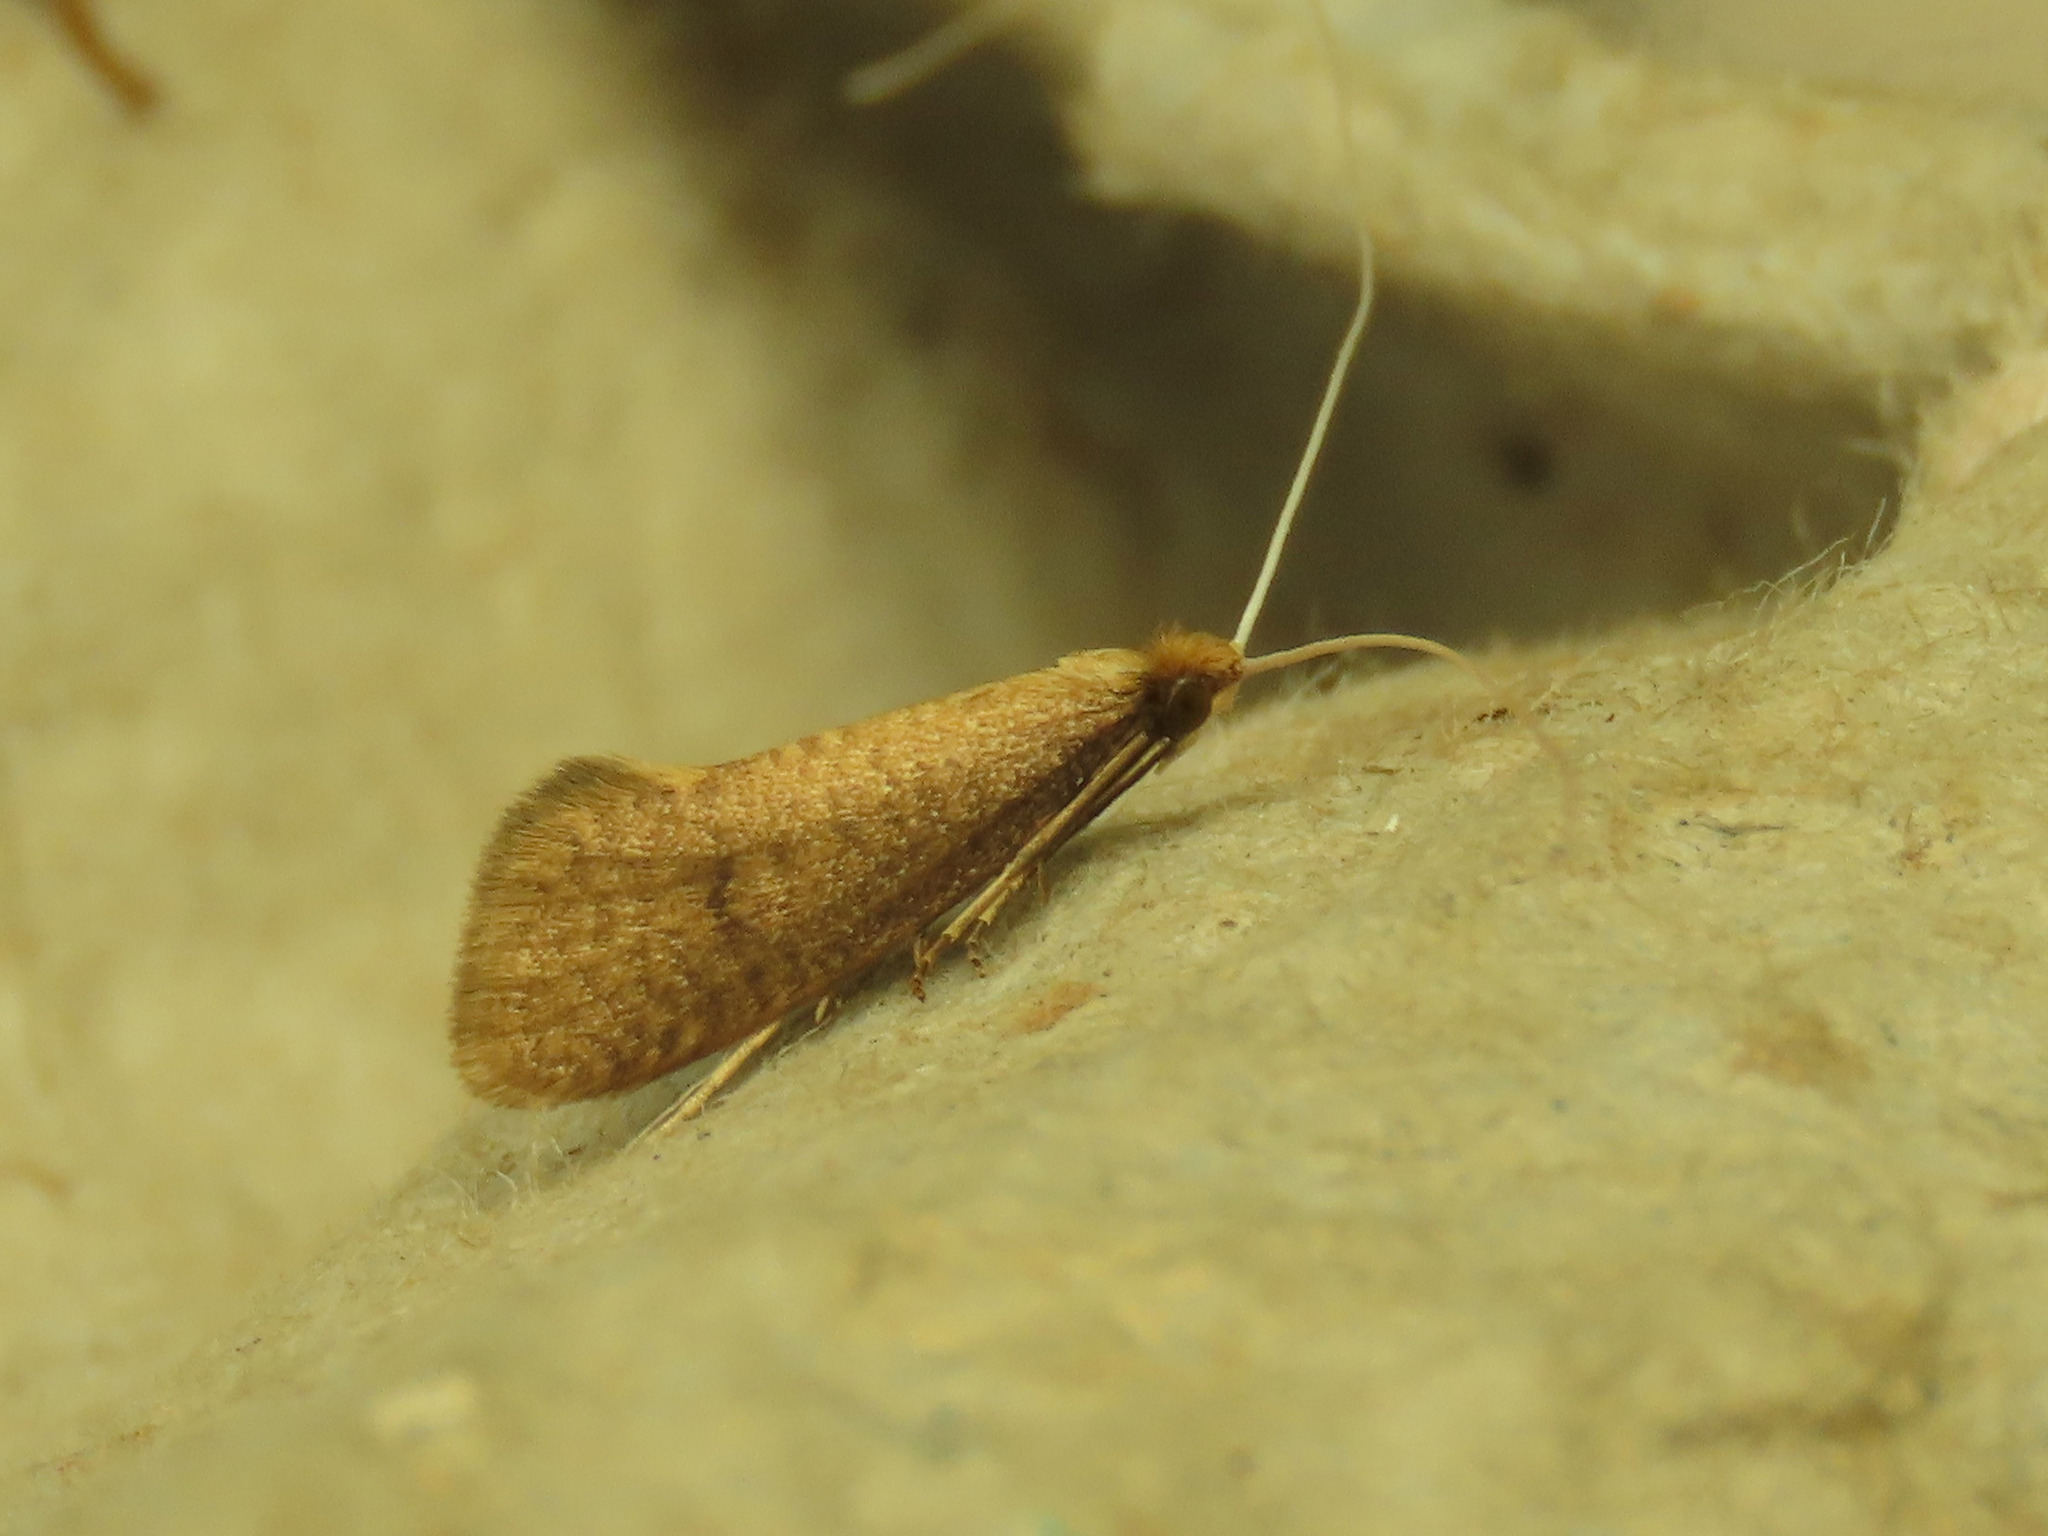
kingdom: Animalia
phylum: Arthropoda
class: Insecta
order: Lepidoptera
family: Adelidae
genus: Nematopogon
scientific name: Nematopogon metaxella
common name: Buff long-horn
